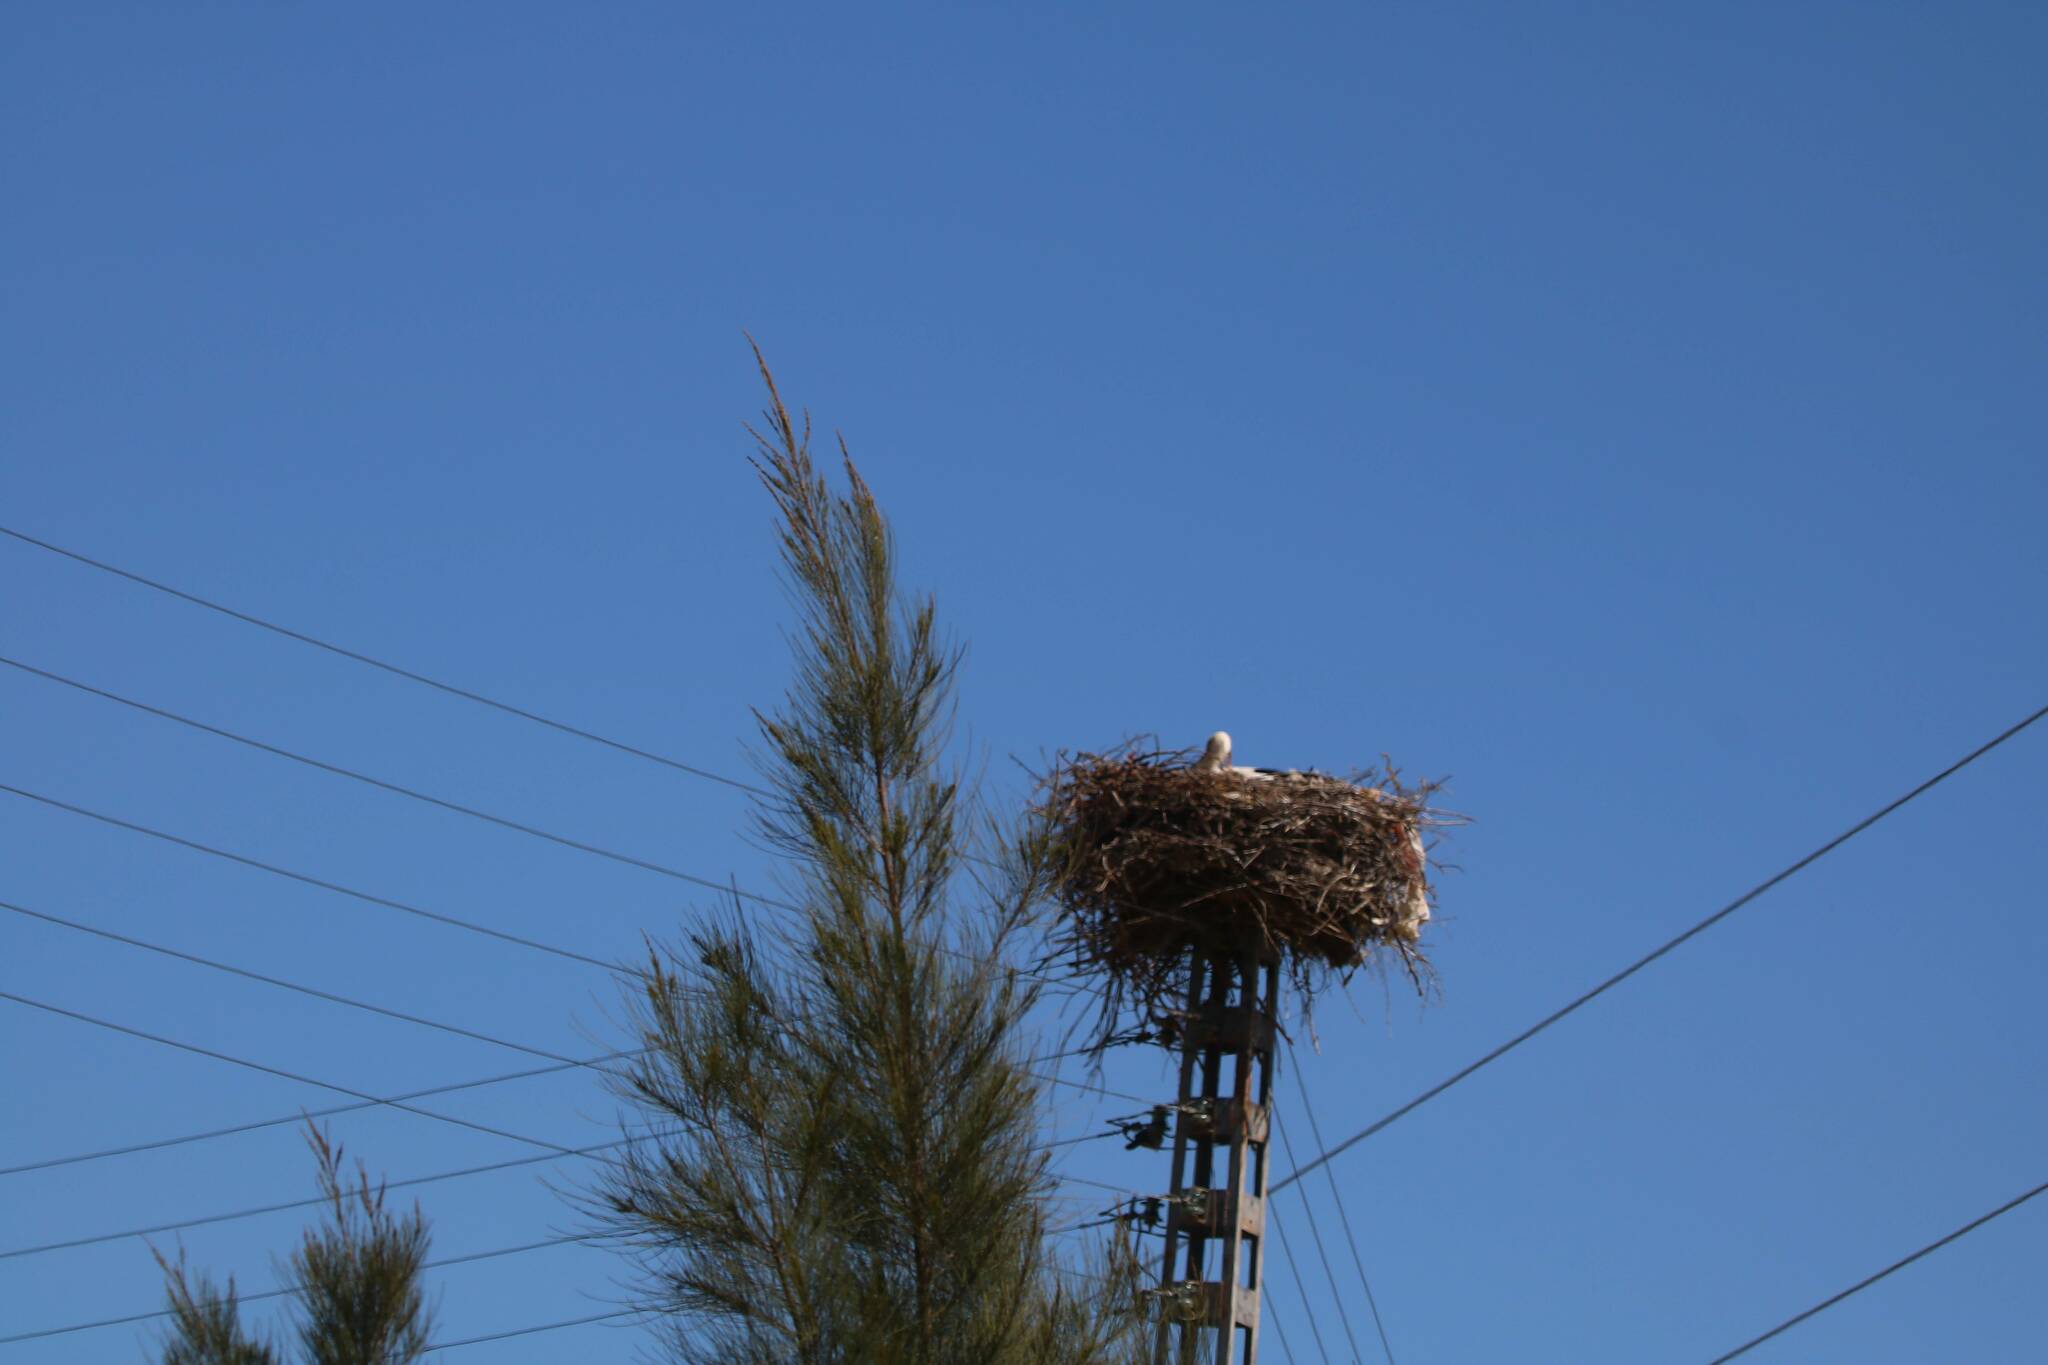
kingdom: Animalia
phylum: Chordata
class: Aves
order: Ciconiiformes
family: Ciconiidae
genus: Ciconia
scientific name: Ciconia ciconia
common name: White stork
